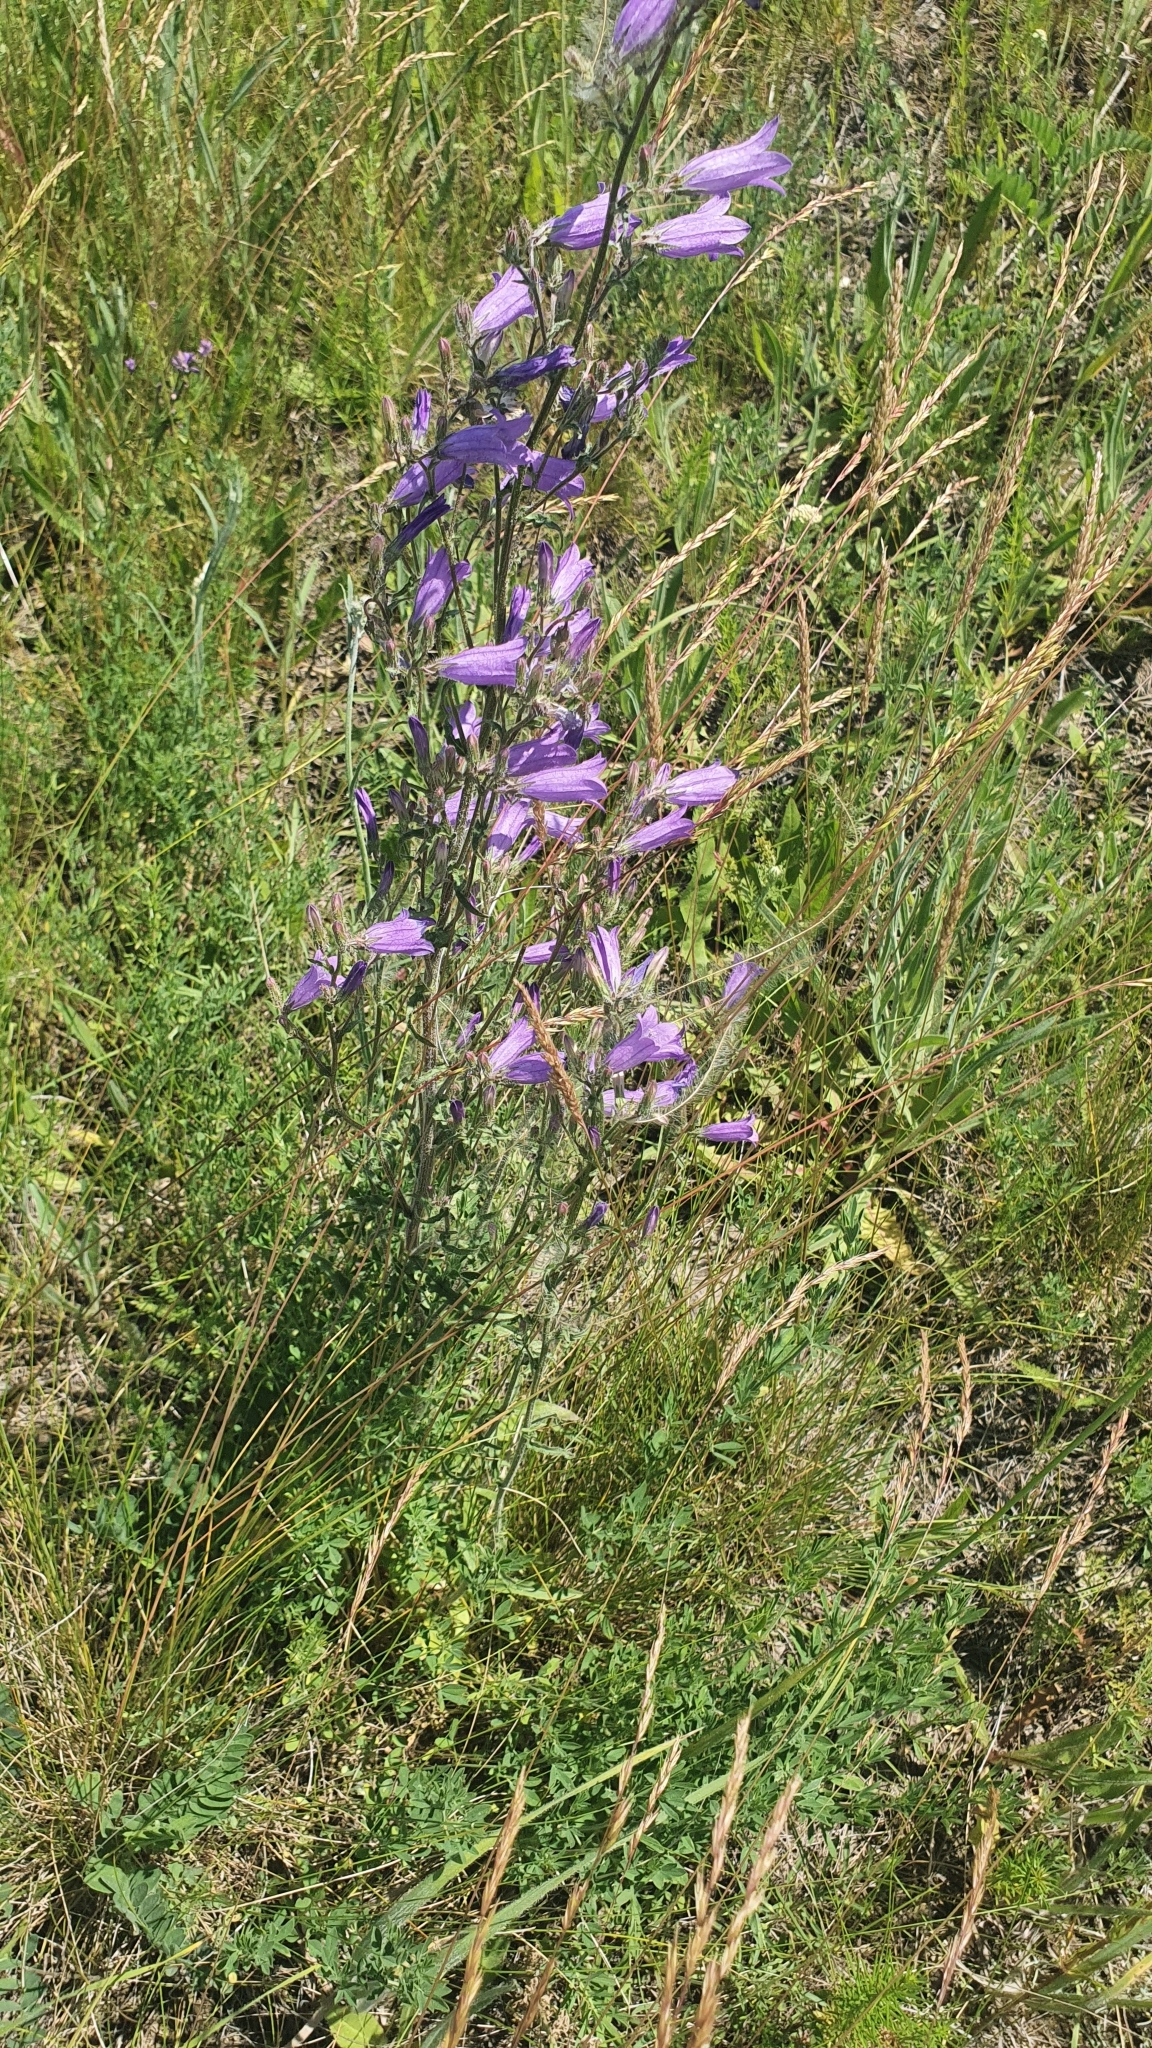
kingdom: Plantae
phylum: Tracheophyta
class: Magnoliopsida
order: Asterales
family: Campanulaceae
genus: Campanula
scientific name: Campanula sibirica
